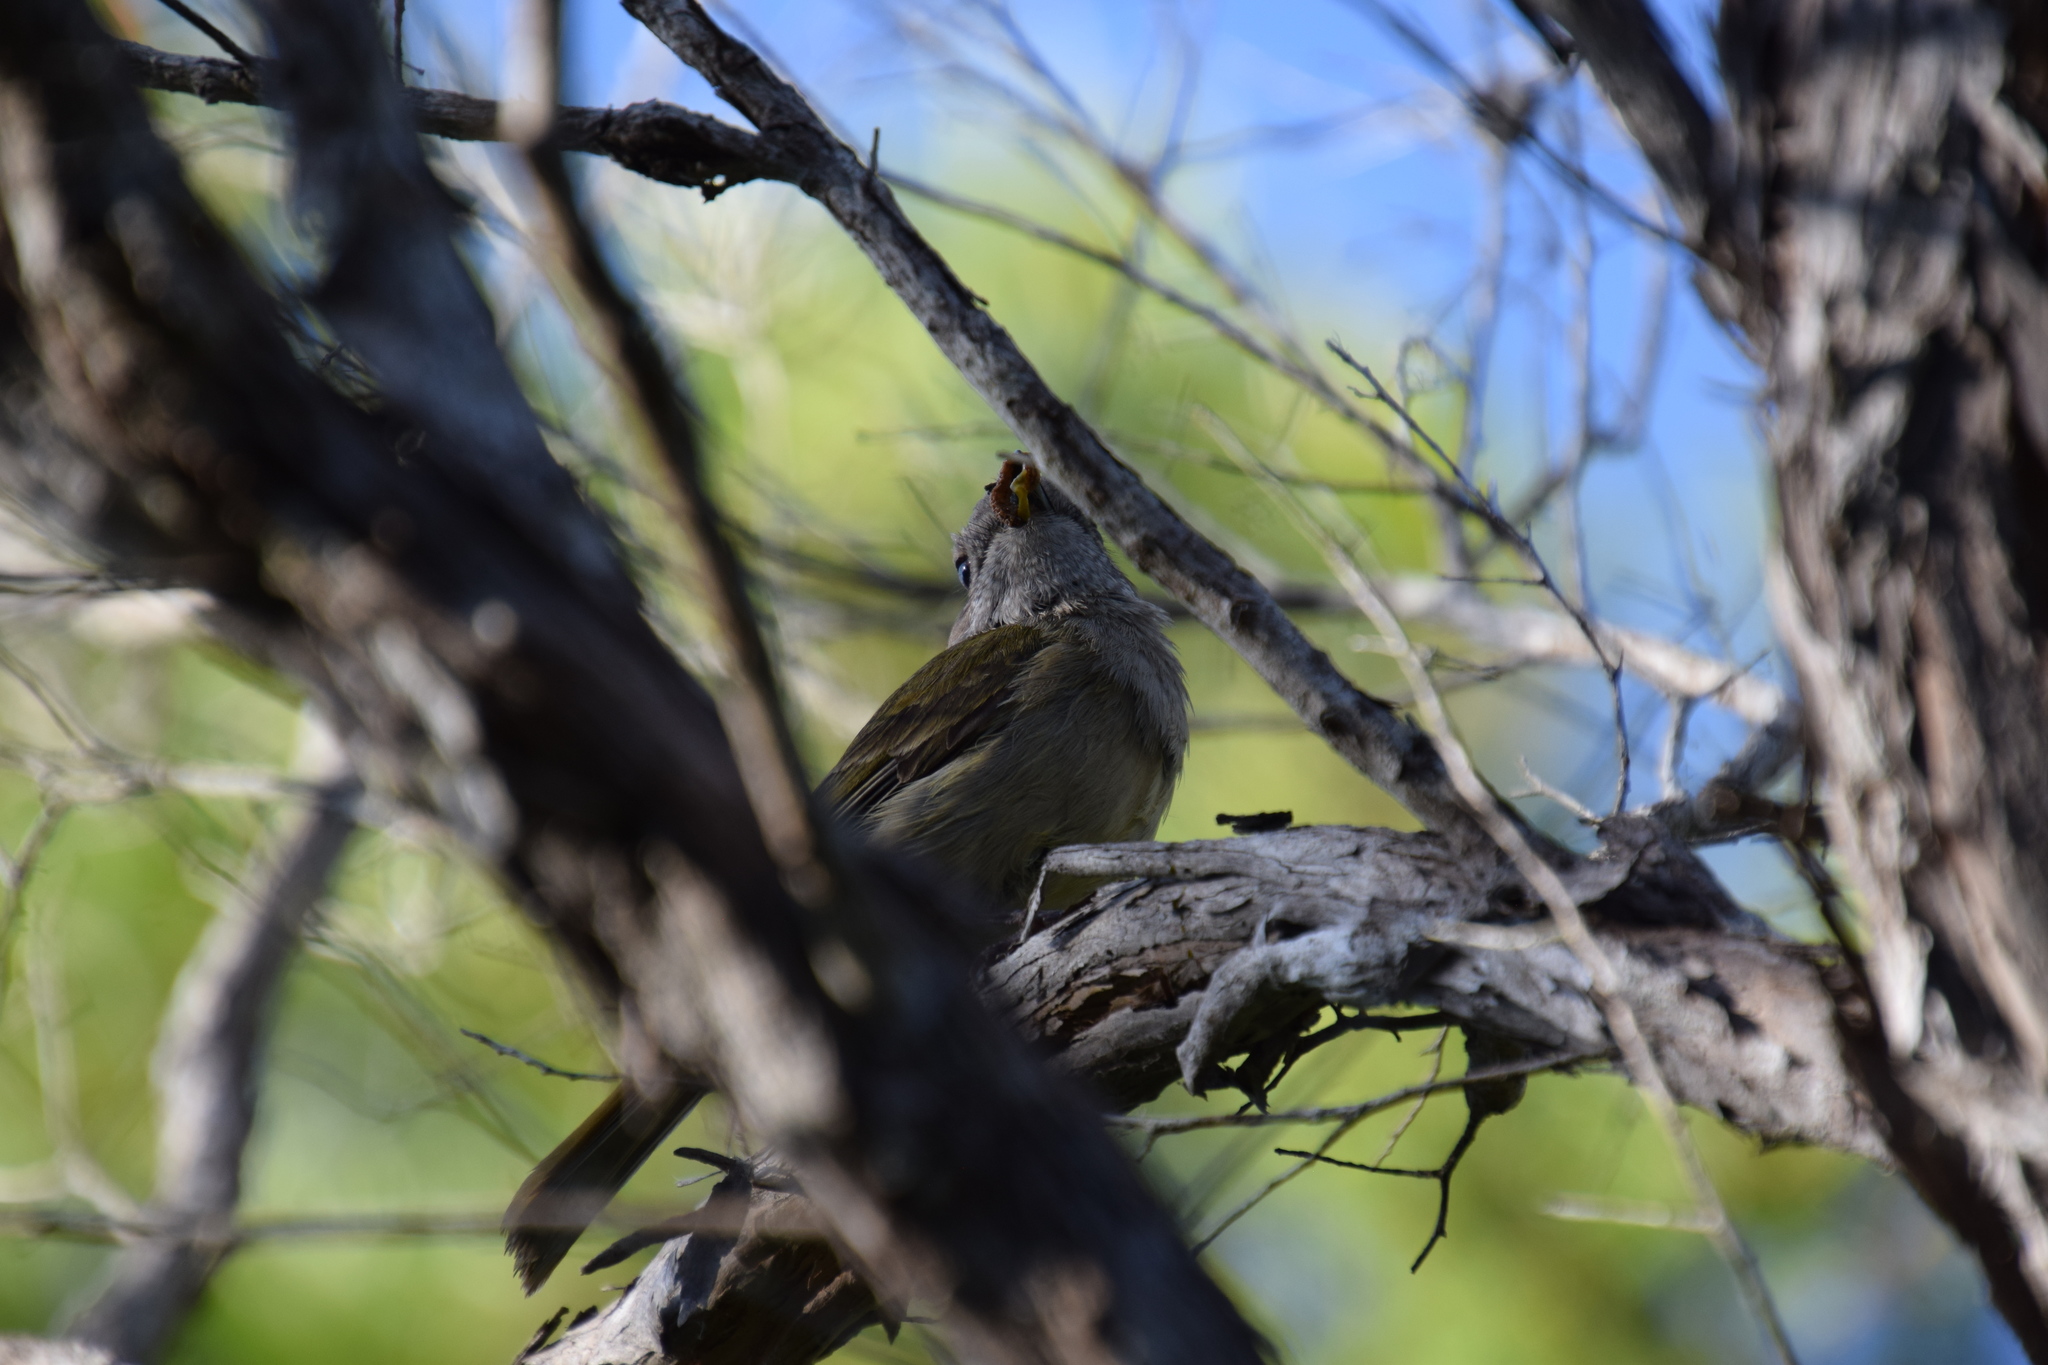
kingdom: Animalia
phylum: Chordata
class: Aves
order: Passeriformes
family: Pachycephalidae
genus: Pachycephala
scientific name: Pachycephala pectoralis
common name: Australian golden whistler
